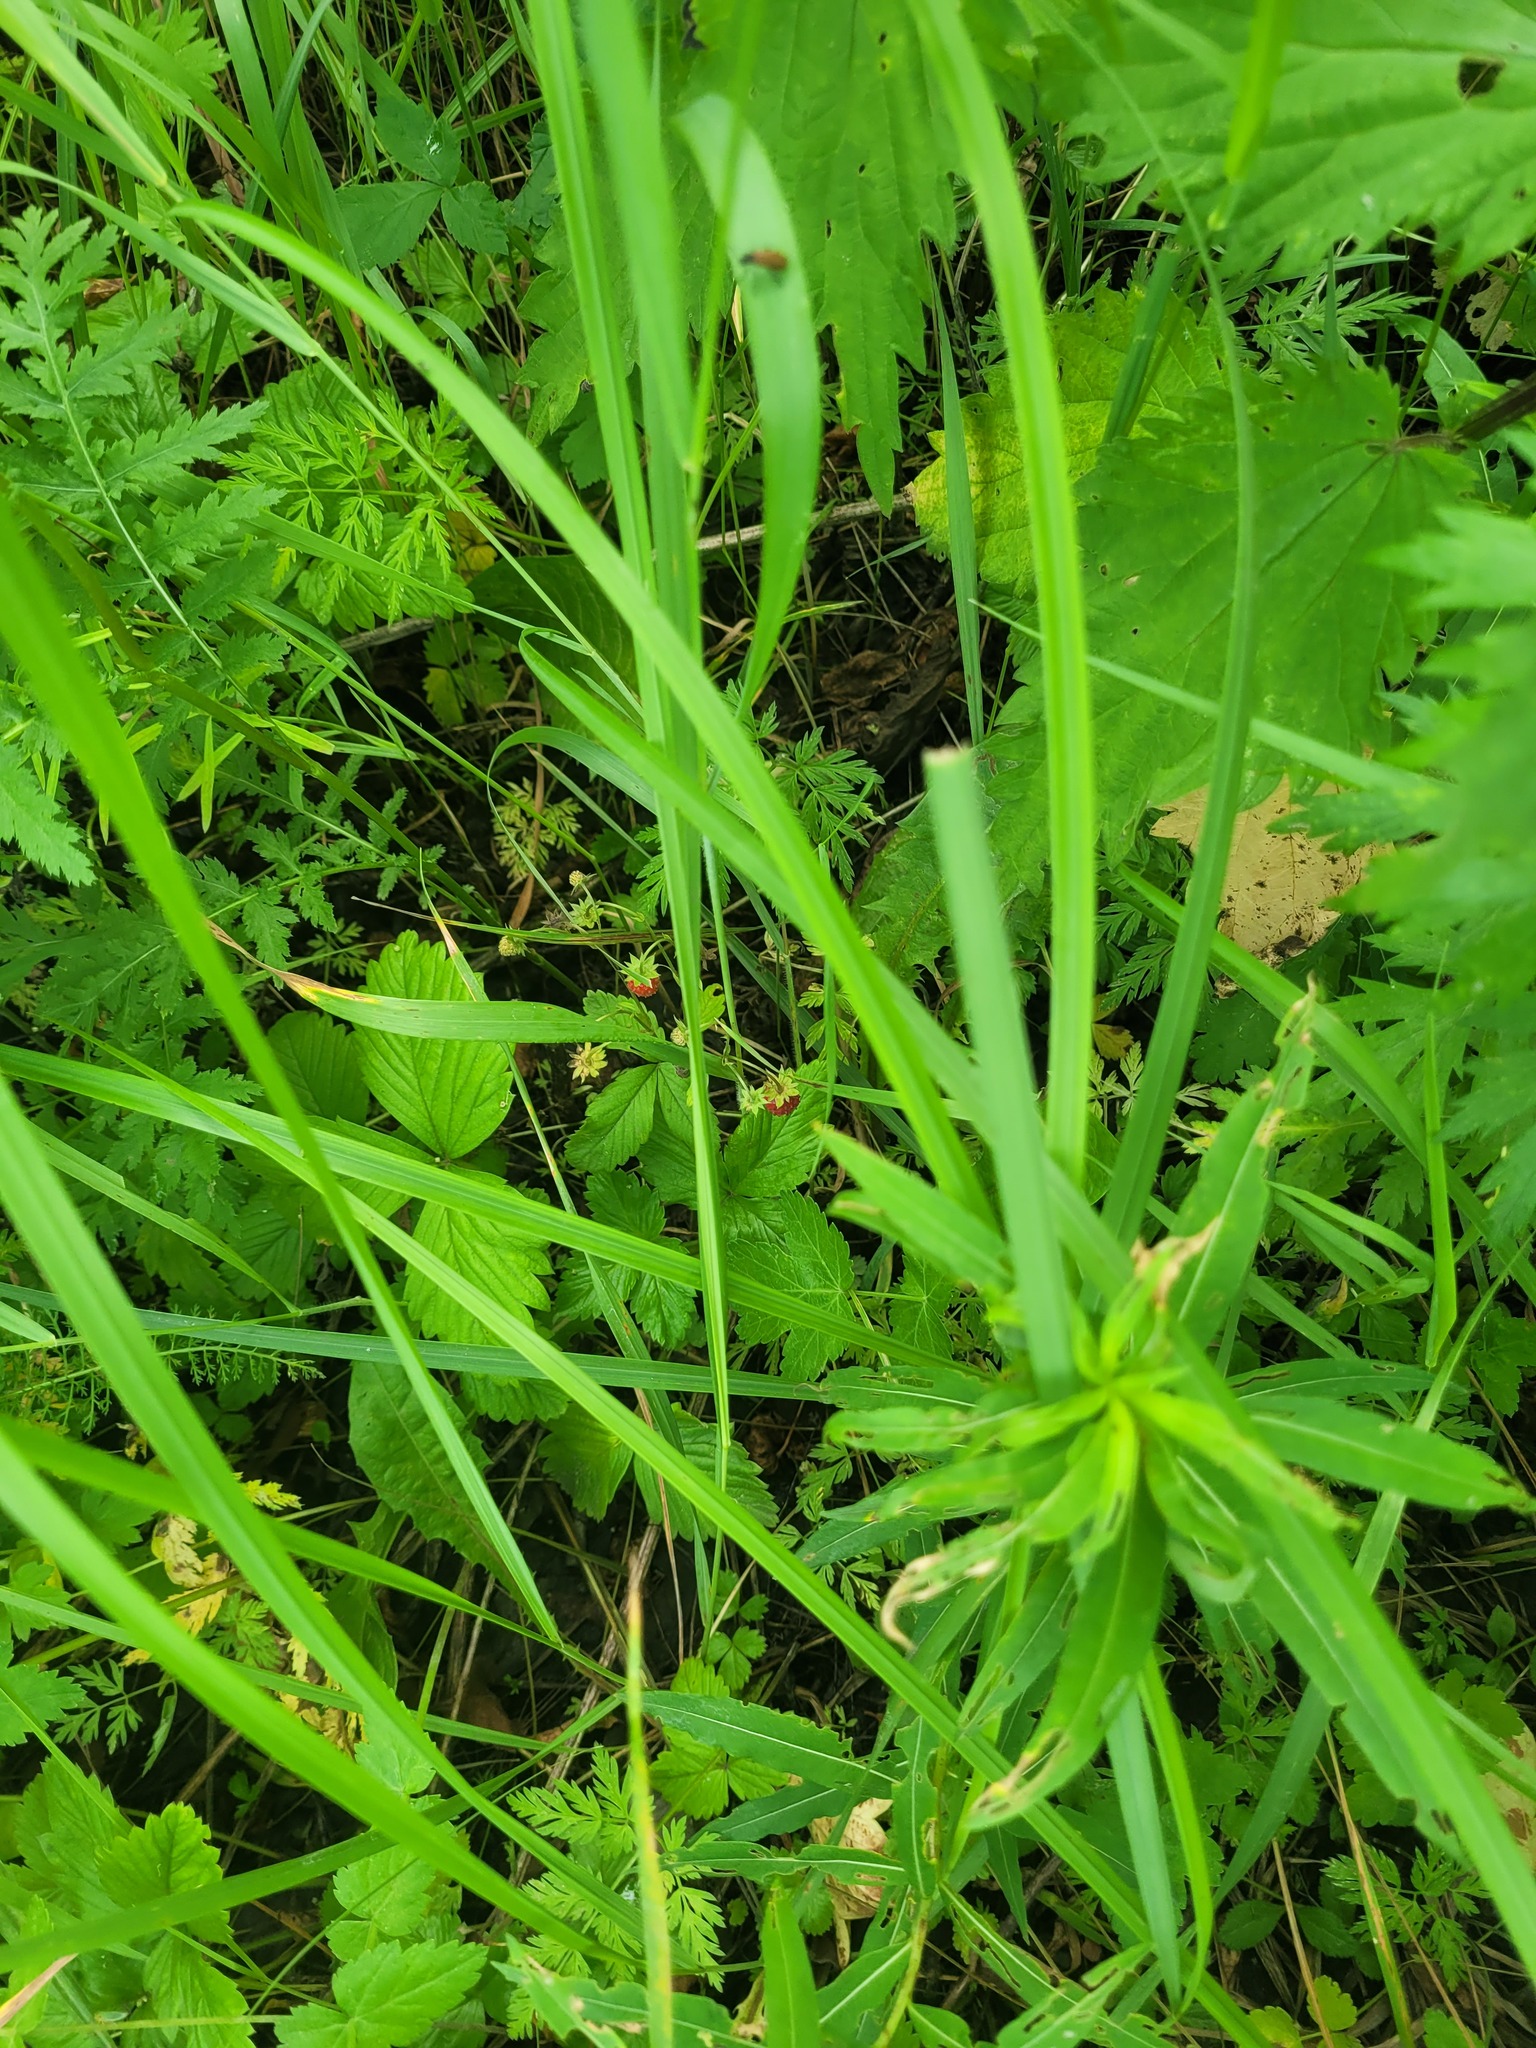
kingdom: Plantae
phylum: Tracheophyta
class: Magnoliopsida
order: Rosales
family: Rosaceae
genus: Fragaria
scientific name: Fragaria vesca
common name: Wild strawberry
